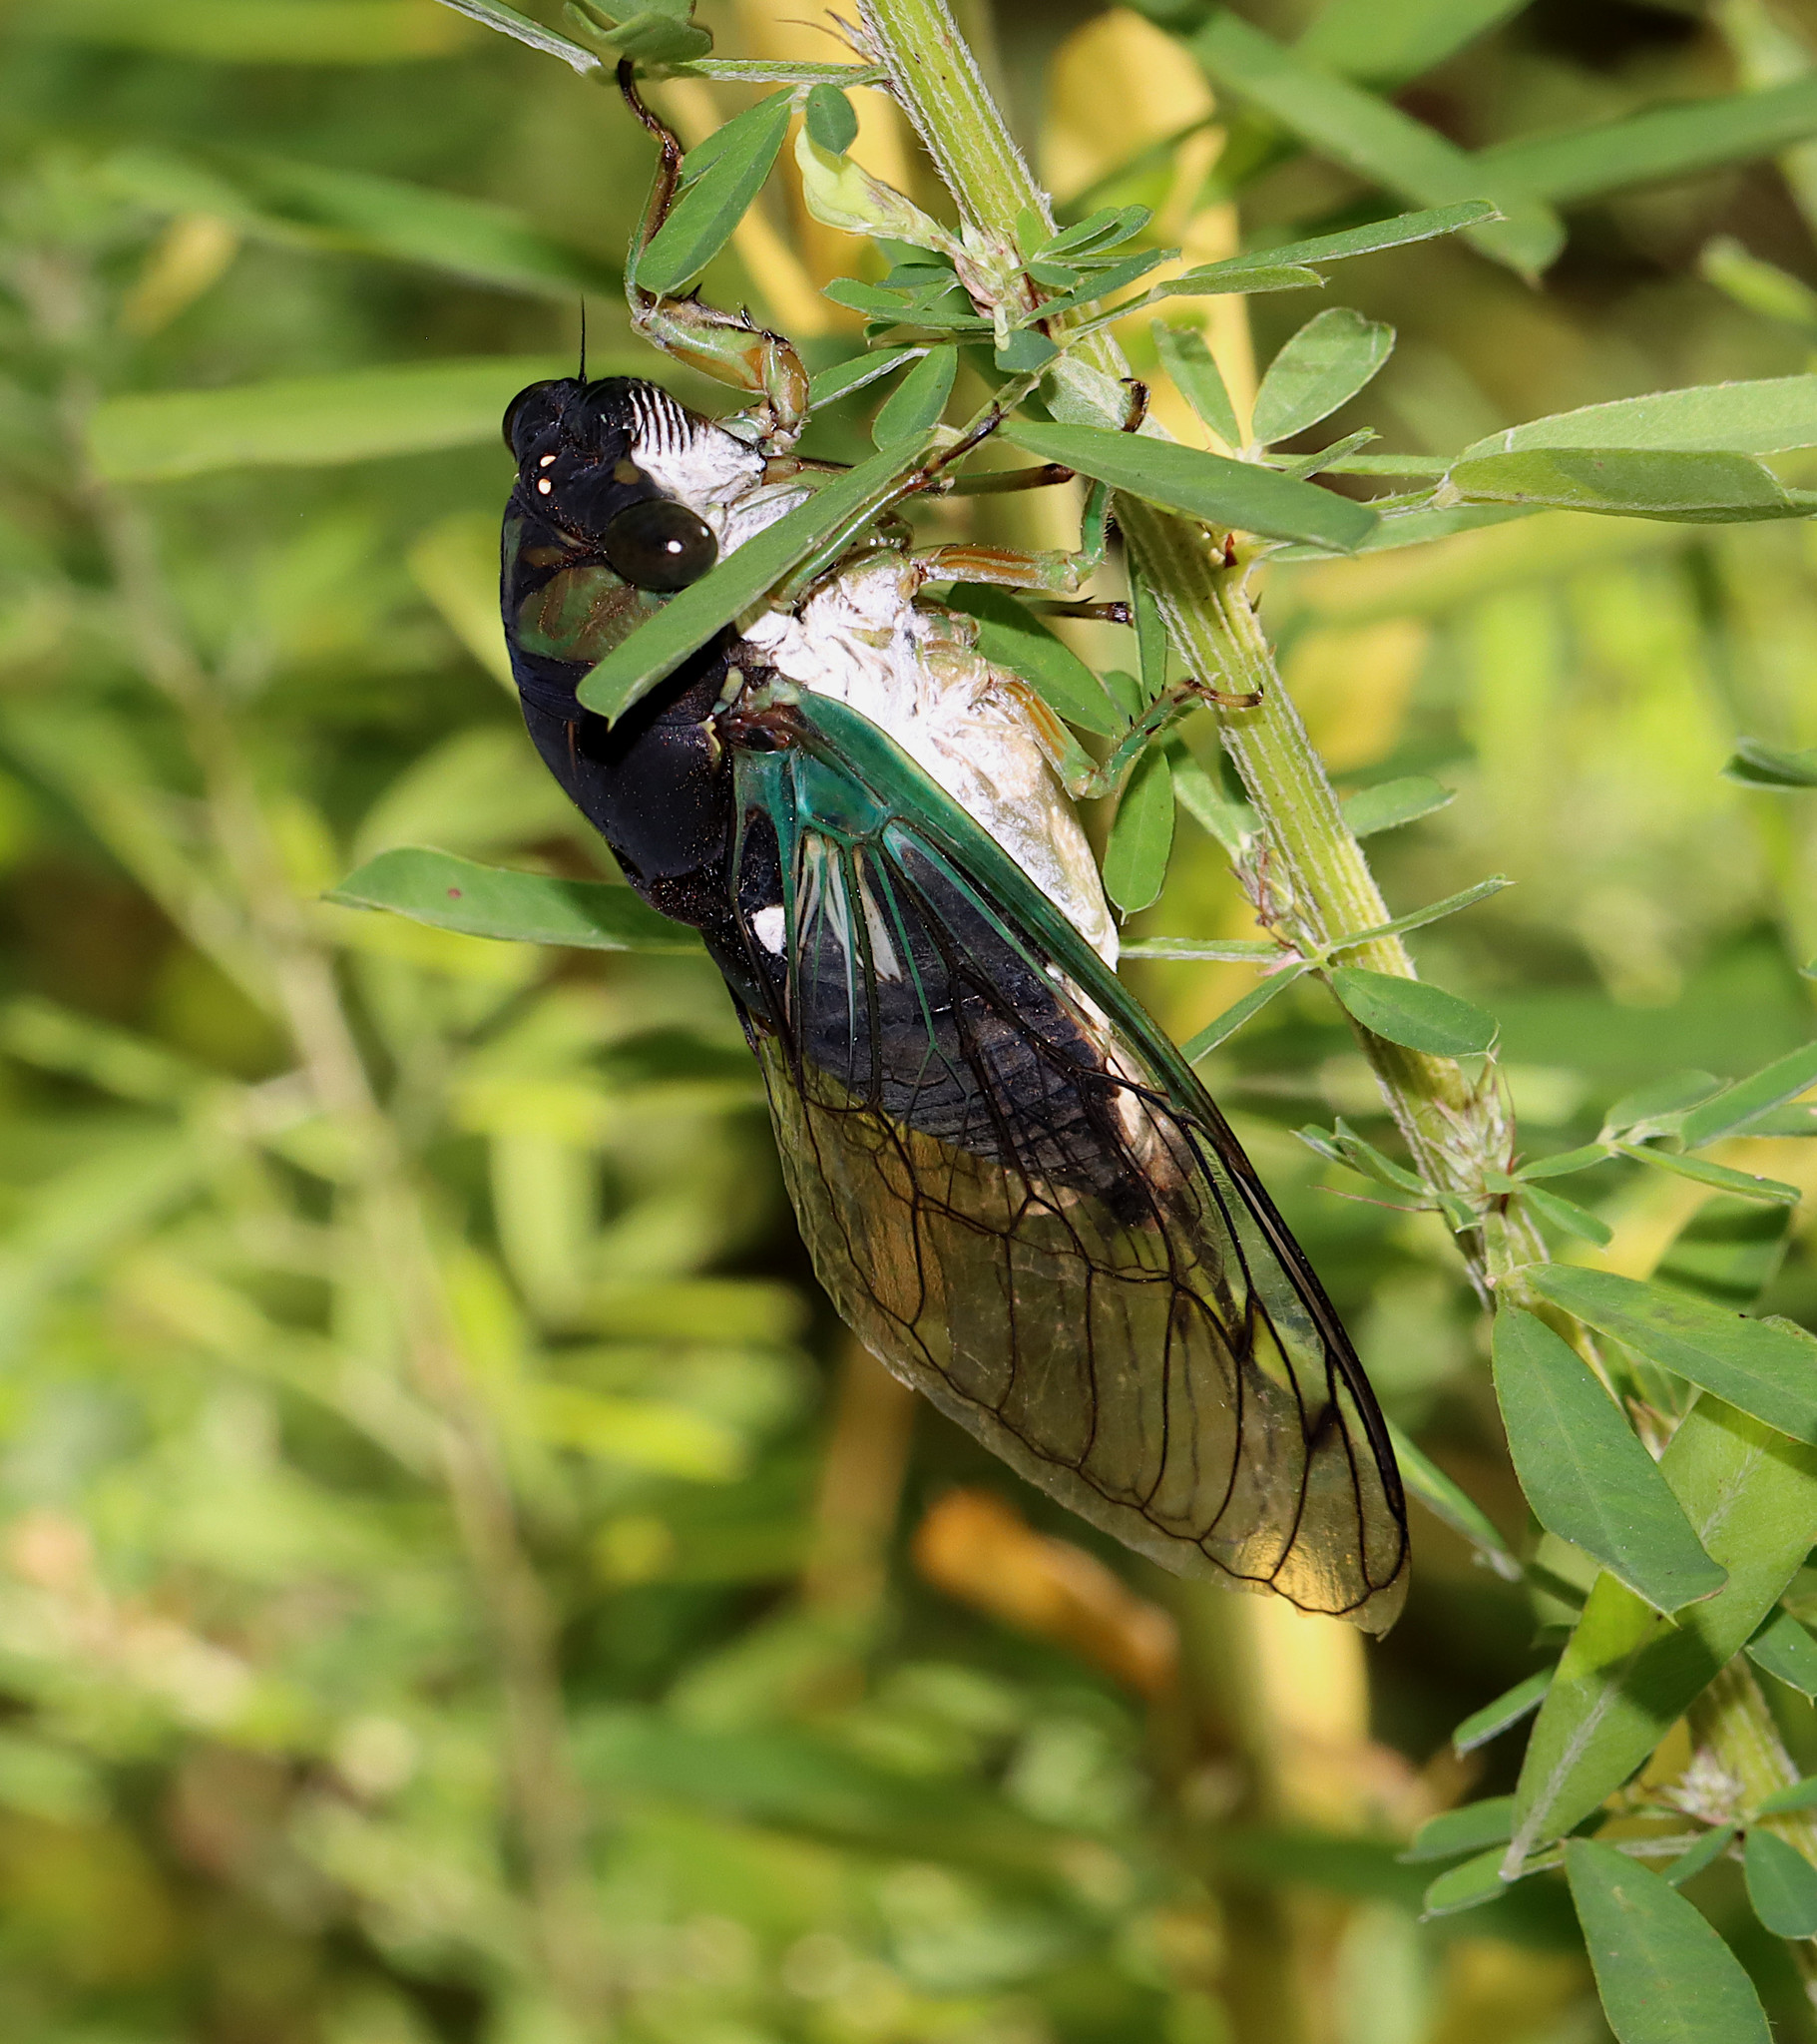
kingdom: Animalia
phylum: Arthropoda
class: Insecta
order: Hemiptera
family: Cicadidae
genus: Neotibicen
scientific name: Neotibicen tibicen
